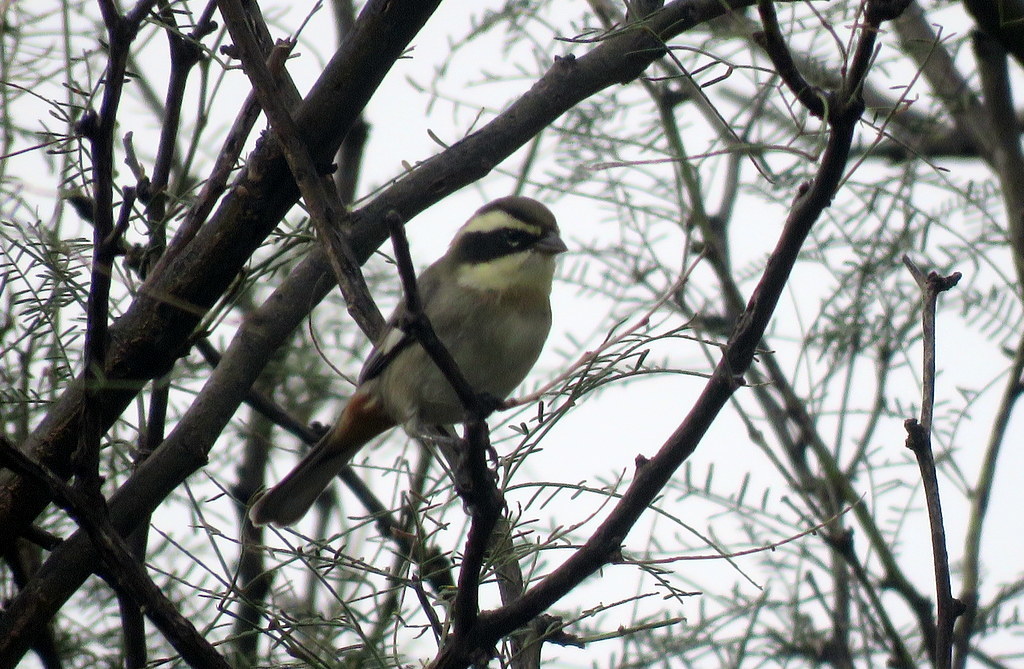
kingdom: Animalia
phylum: Chordata
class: Aves
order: Passeriformes
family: Thraupidae
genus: Microspingus
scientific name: Microspingus torquatus
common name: Ringed warbling-finch
